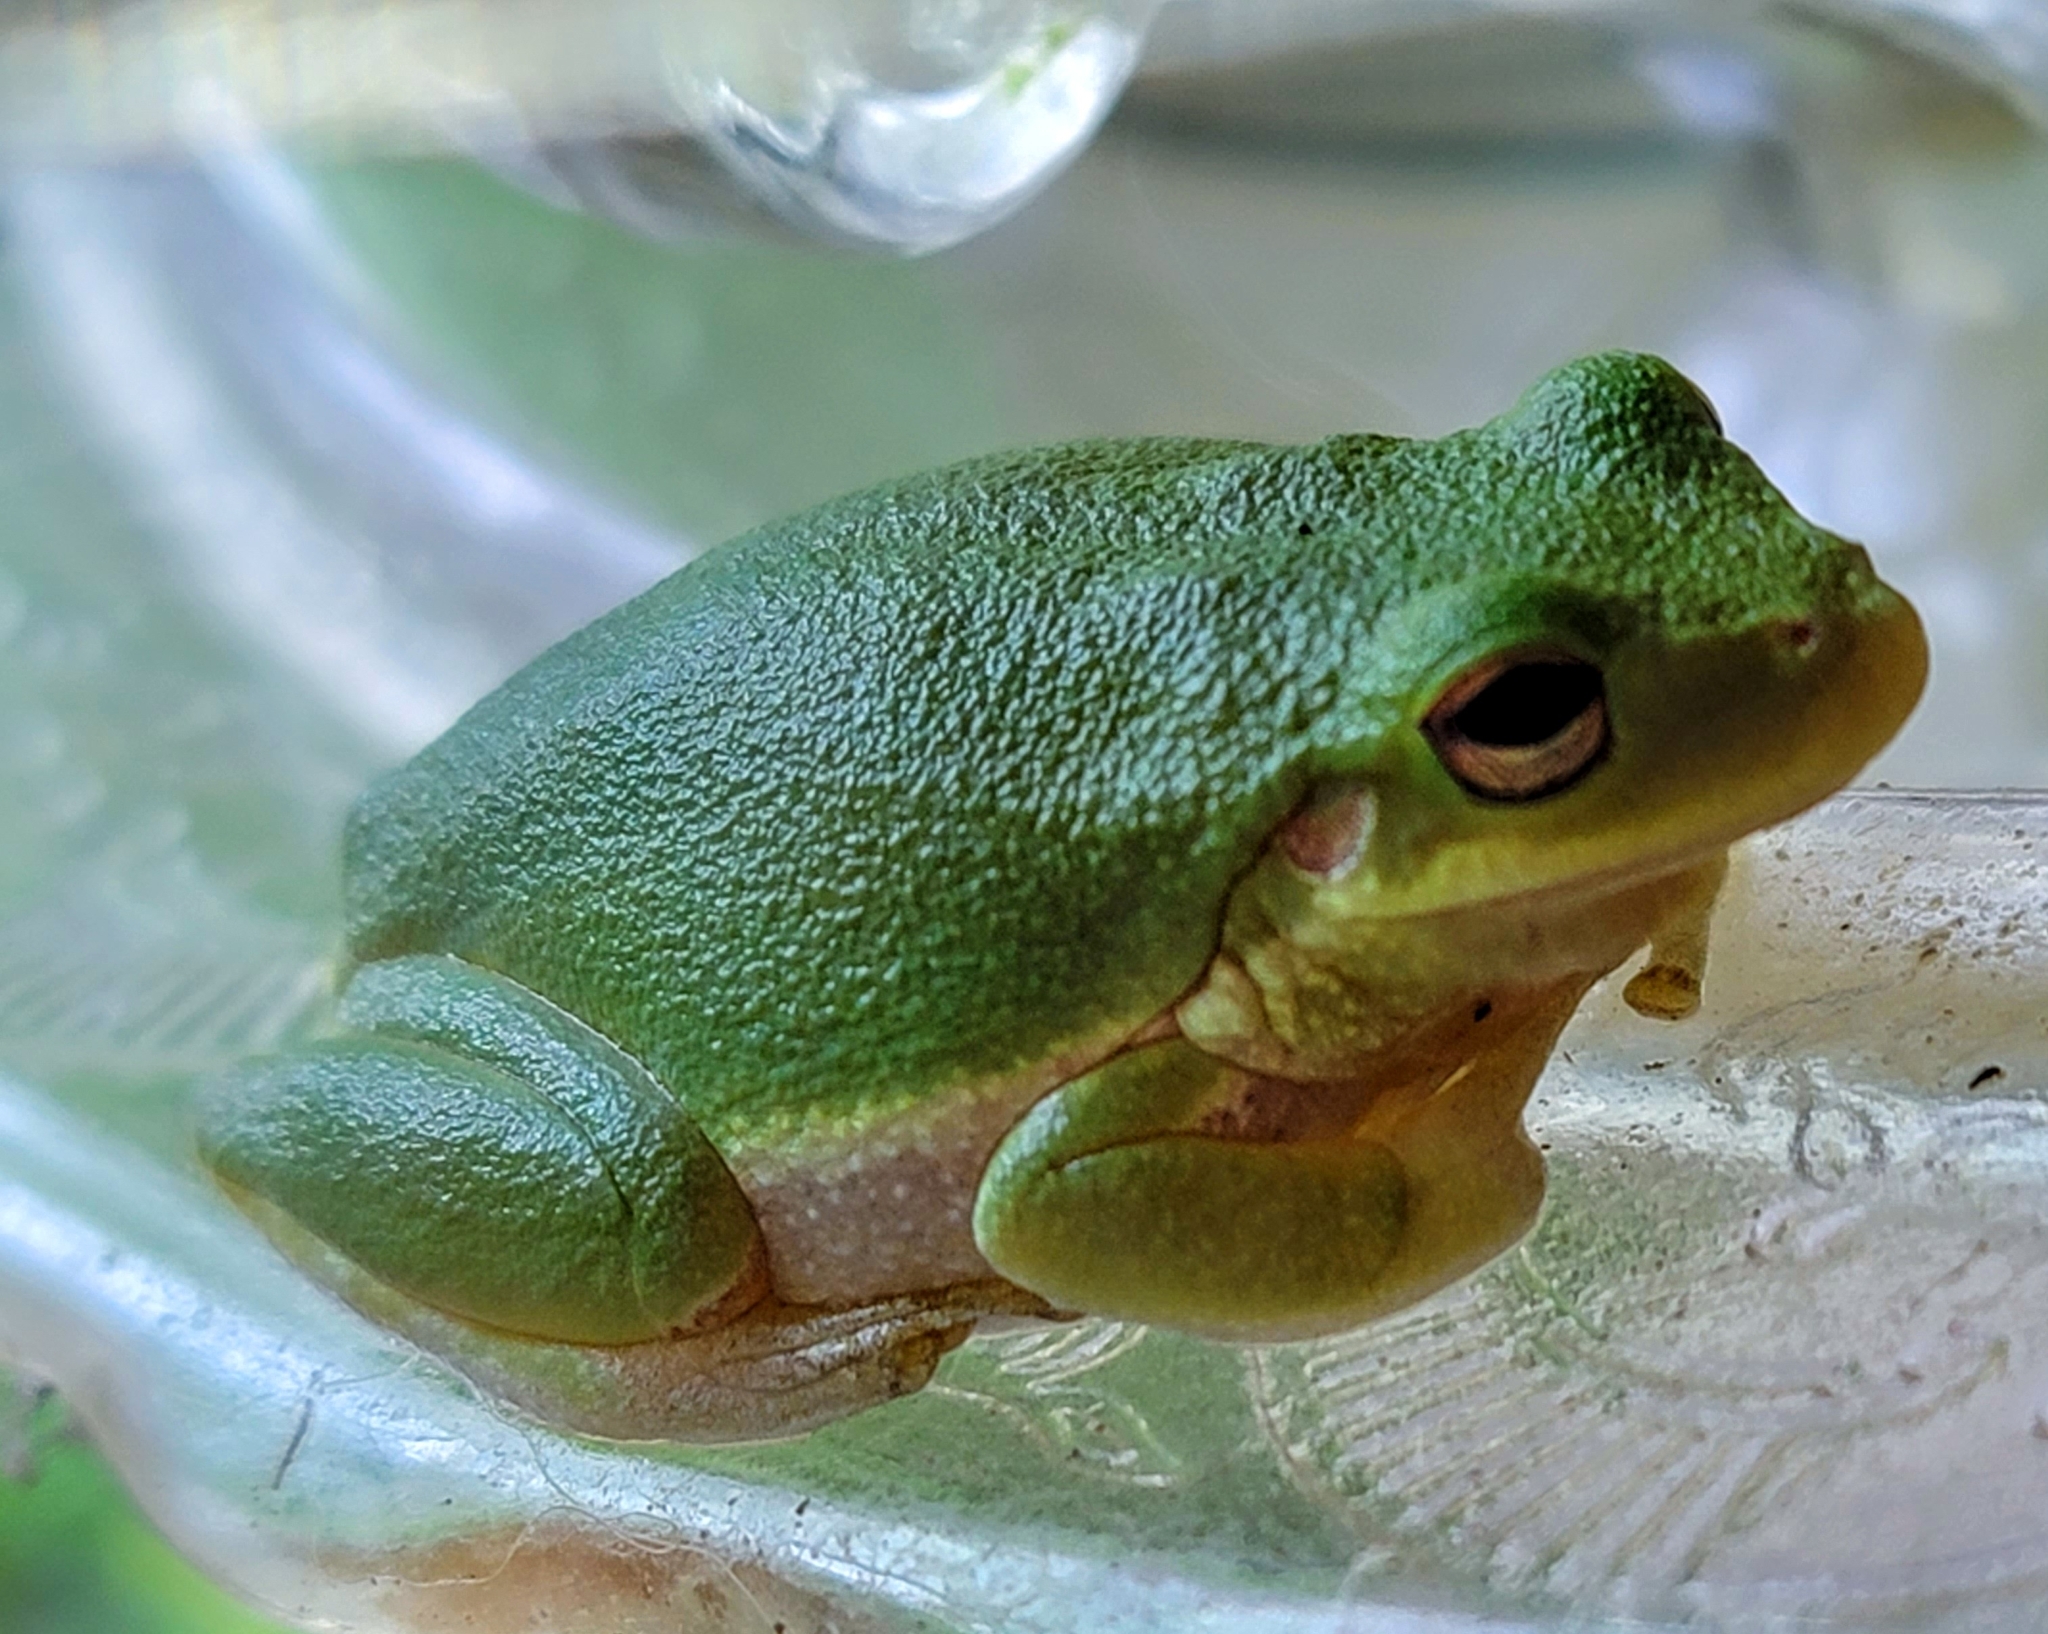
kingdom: Animalia
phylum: Chordata
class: Amphibia
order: Anura
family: Hylidae
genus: Dryophytes
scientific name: Dryophytes squirellus
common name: Squirrel treefrog
